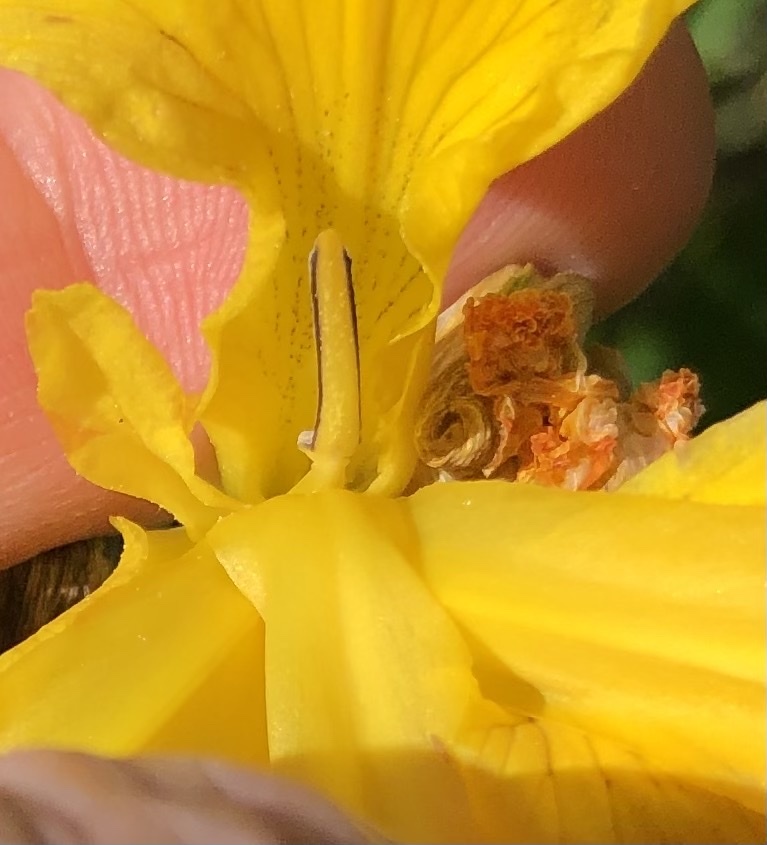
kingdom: Plantae
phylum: Tracheophyta
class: Liliopsida
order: Asparagales
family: Iridaceae
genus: Iris
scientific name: Iris pseudacorus
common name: Yellow flag
